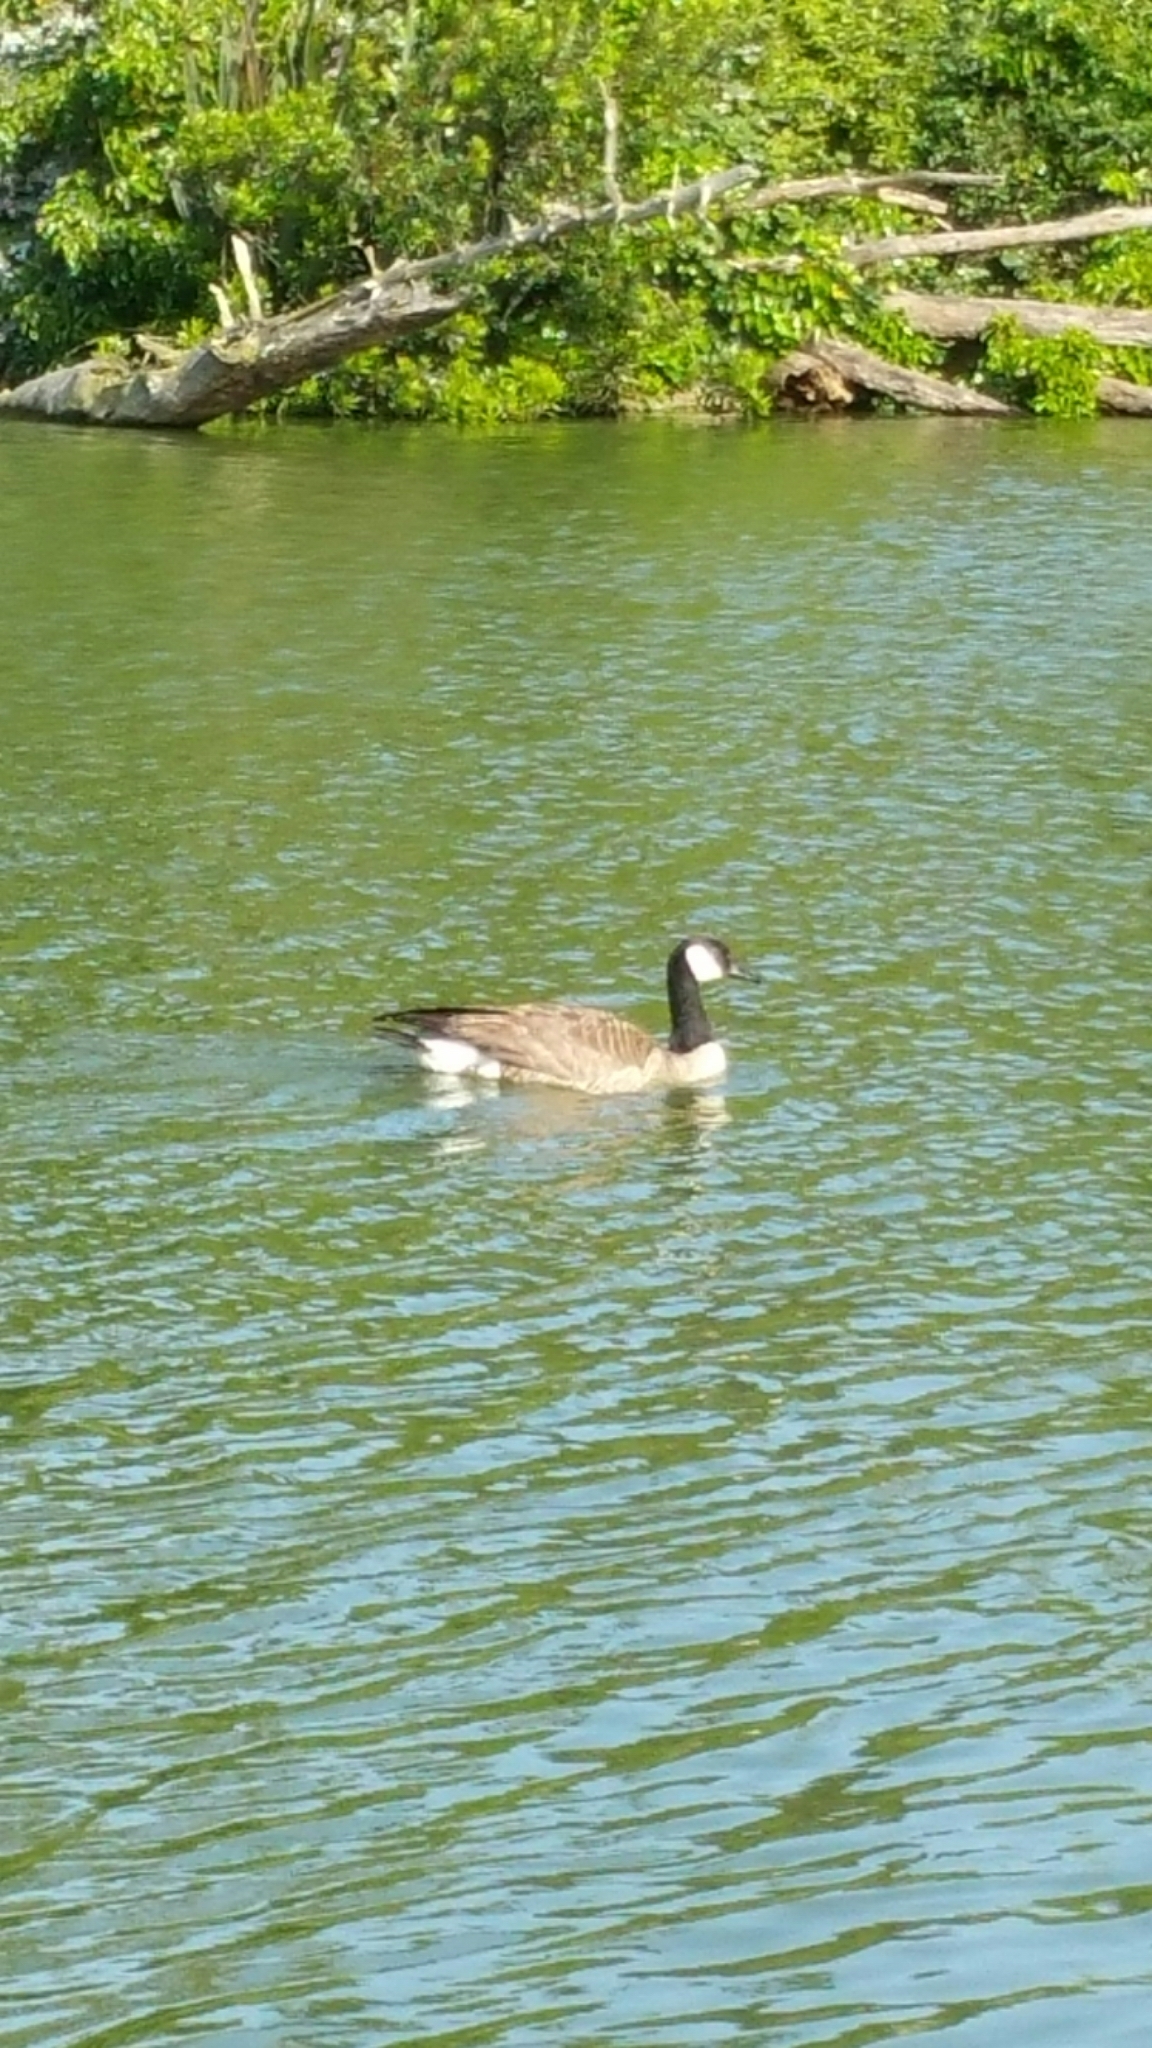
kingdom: Animalia
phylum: Chordata
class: Aves
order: Anseriformes
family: Anatidae
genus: Branta
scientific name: Branta canadensis
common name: Canada goose
